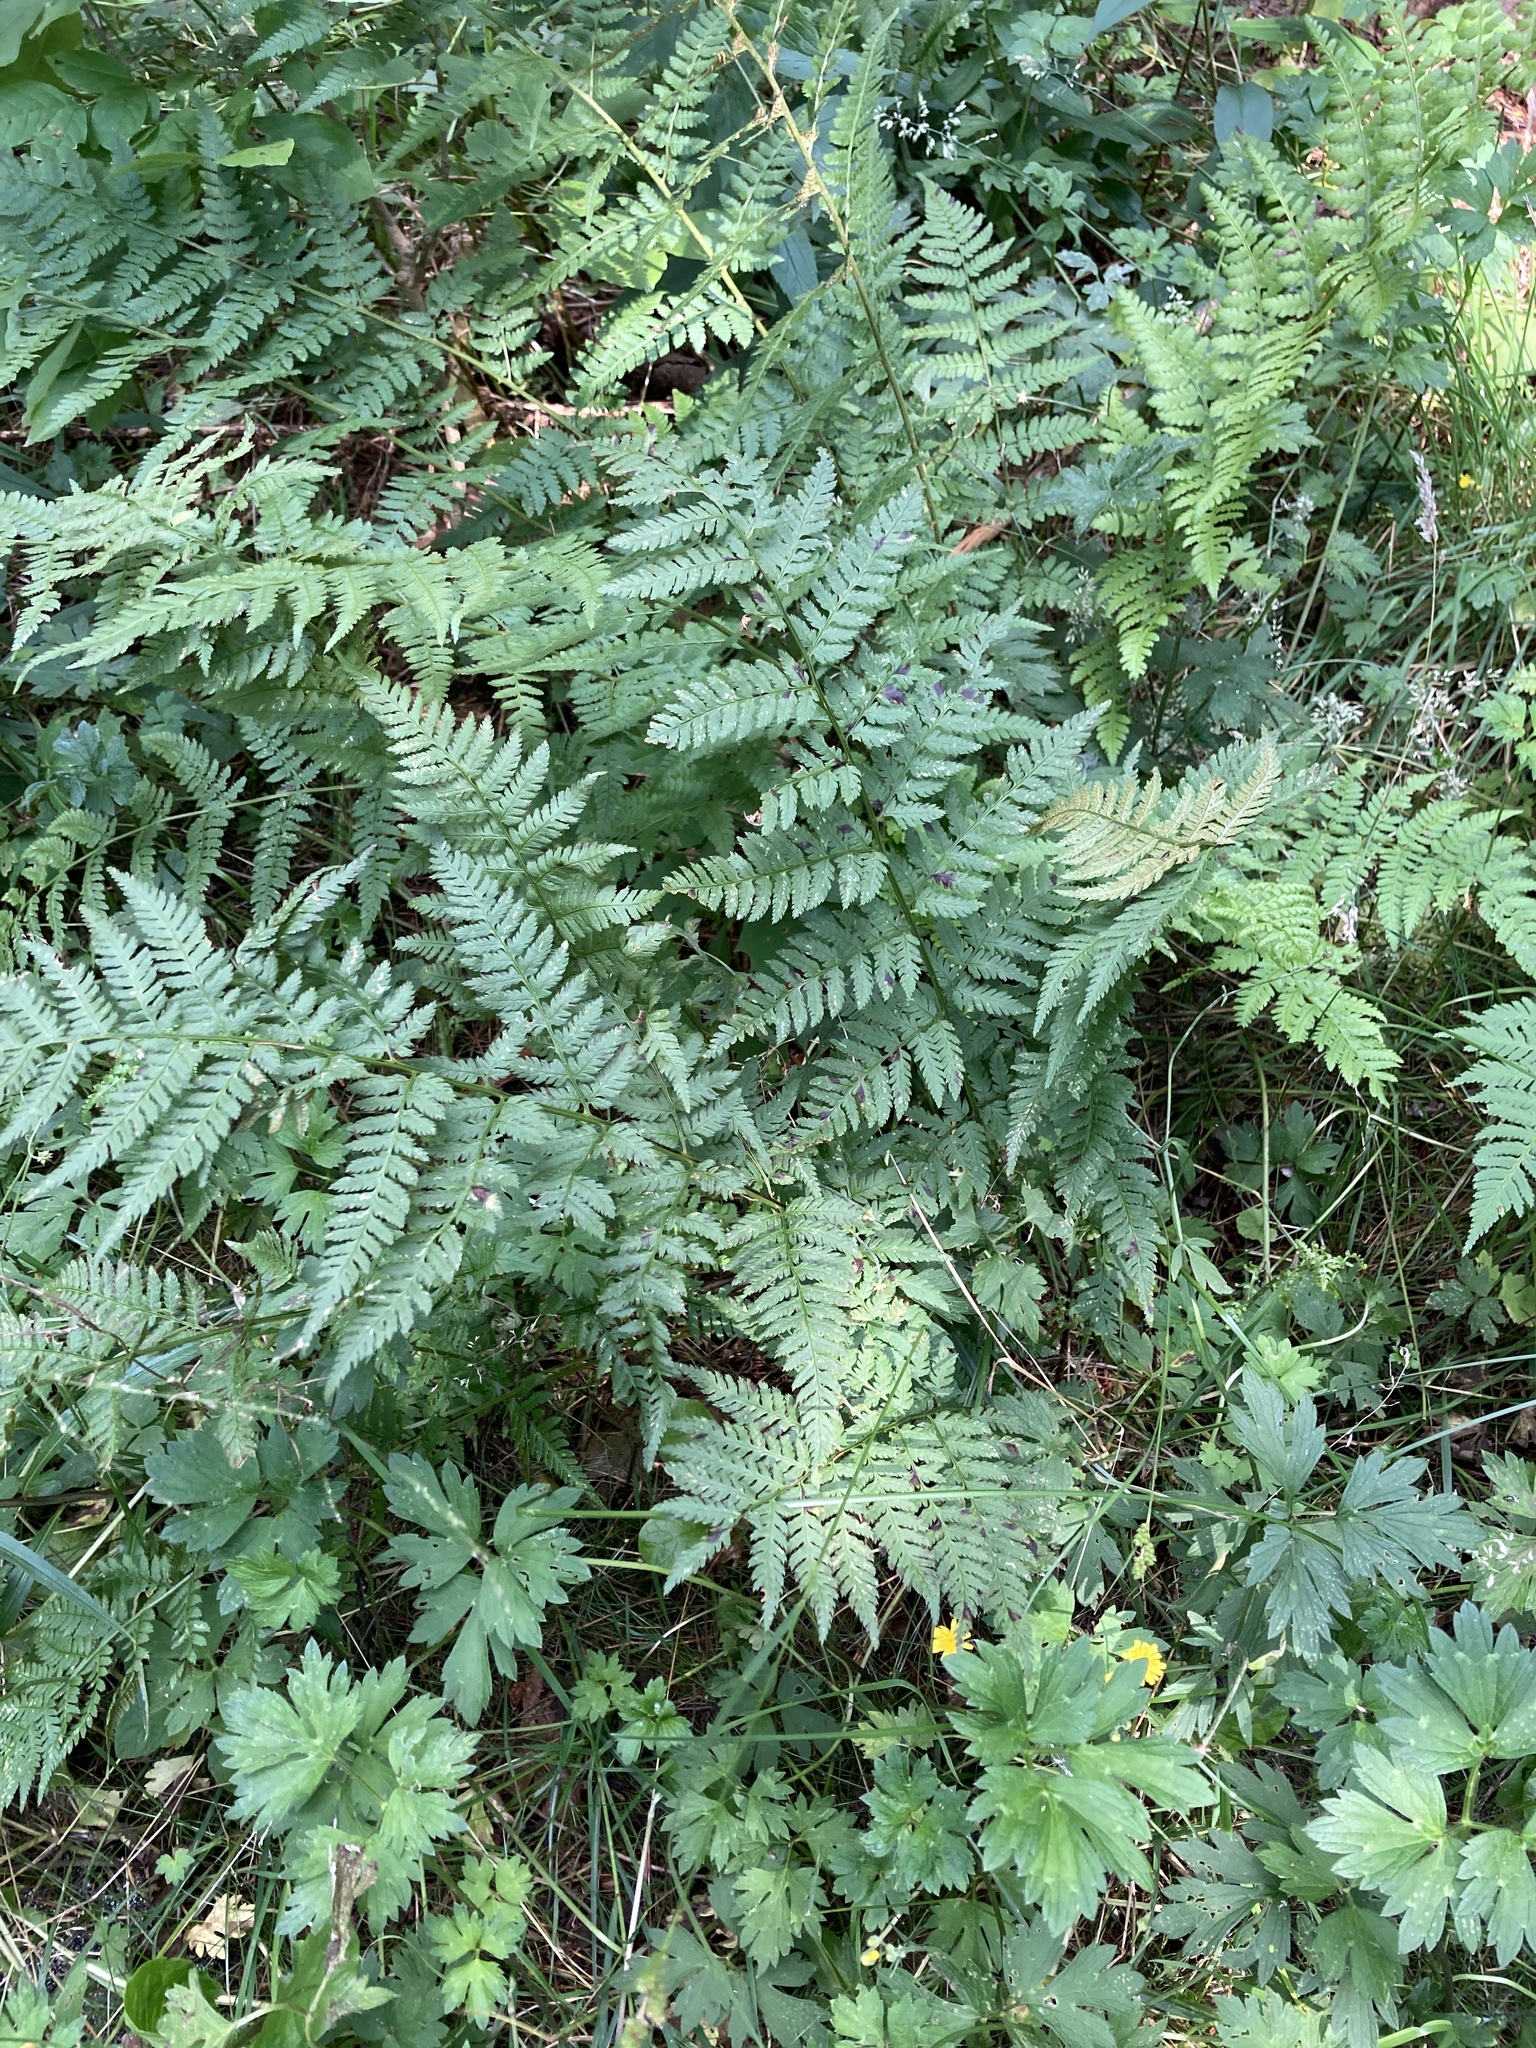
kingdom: Plantae
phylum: Tracheophyta
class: Polypodiopsida
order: Polypodiales
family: Dryopteridaceae
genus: Dryopteris
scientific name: Dryopteris carthusiana
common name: Narrow buckler-fern
